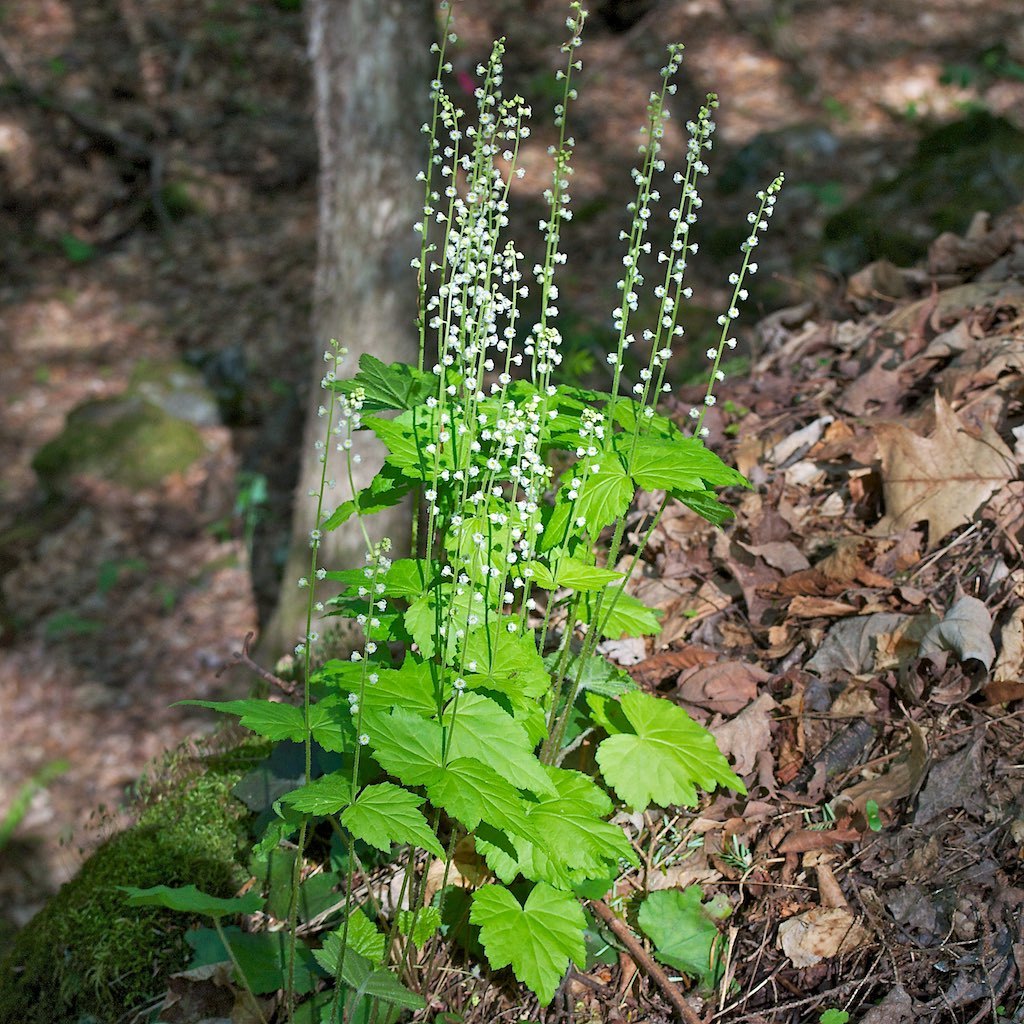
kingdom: Plantae
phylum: Tracheophyta
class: Magnoliopsida
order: Saxifragales
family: Saxifragaceae
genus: Mitella
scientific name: Mitella diphylla
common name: Coolwort
